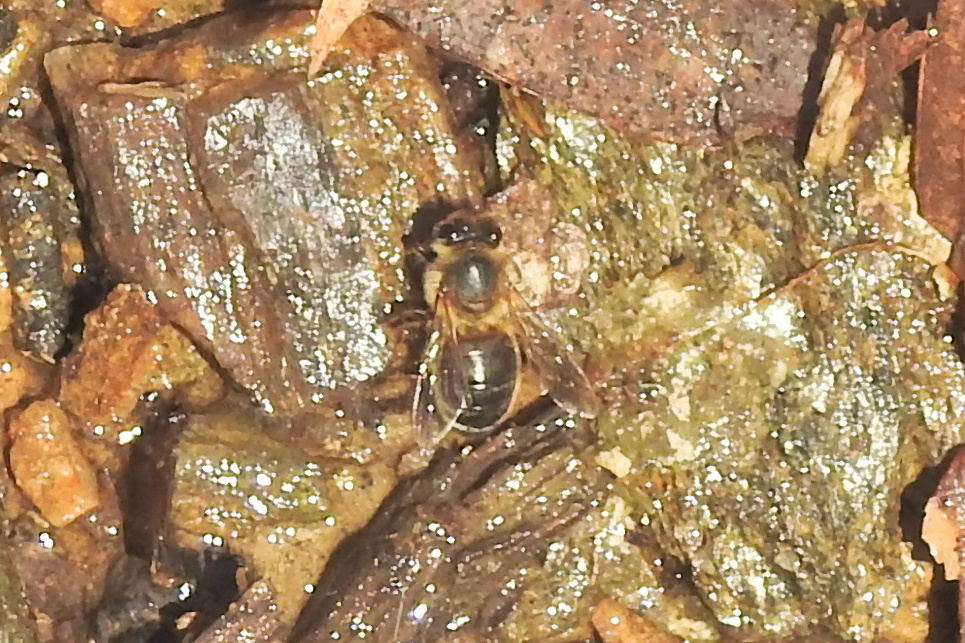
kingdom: Animalia
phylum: Arthropoda
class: Insecta
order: Hymenoptera
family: Apidae
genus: Apis
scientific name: Apis mellifera
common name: Honey bee
